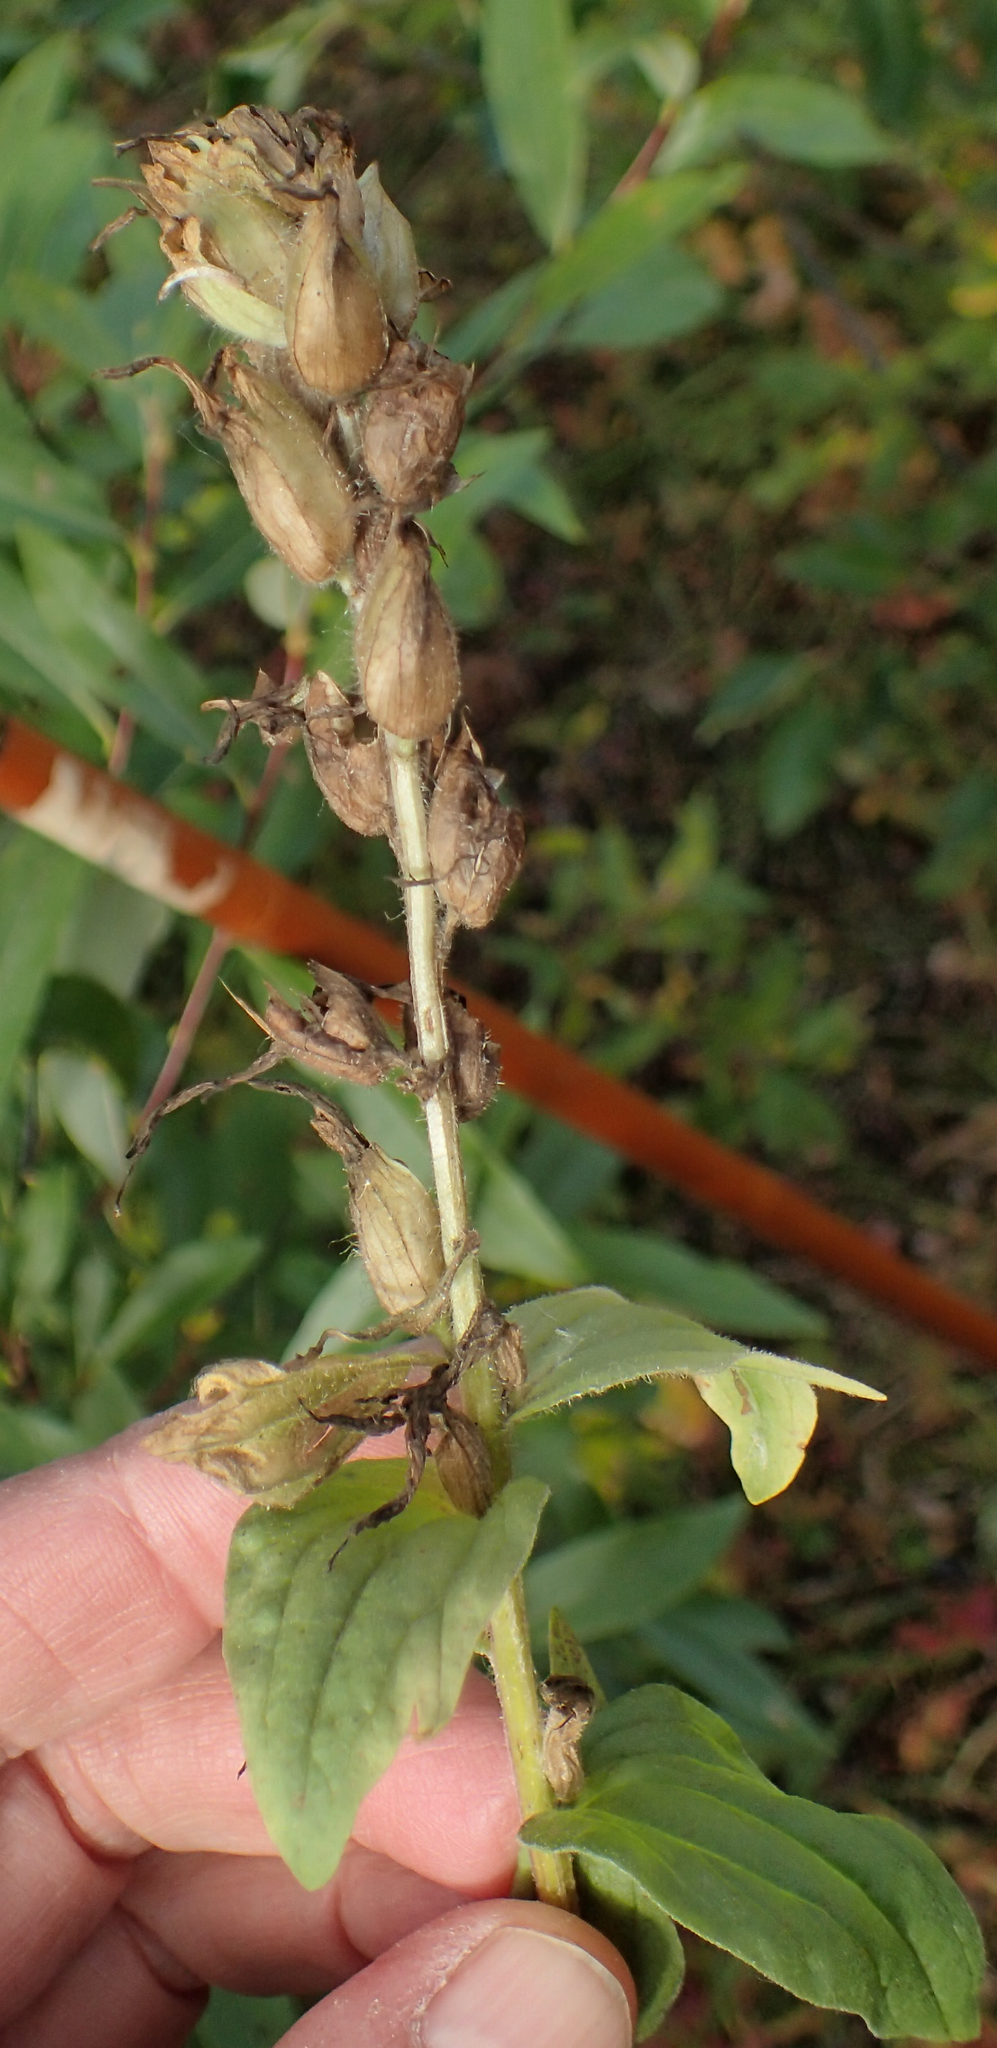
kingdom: Plantae
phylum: Tracheophyta
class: Magnoliopsida
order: Lamiales
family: Phrymaceae
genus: Erythranthe
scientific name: Erythranthe guttata
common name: Monkeyflower
